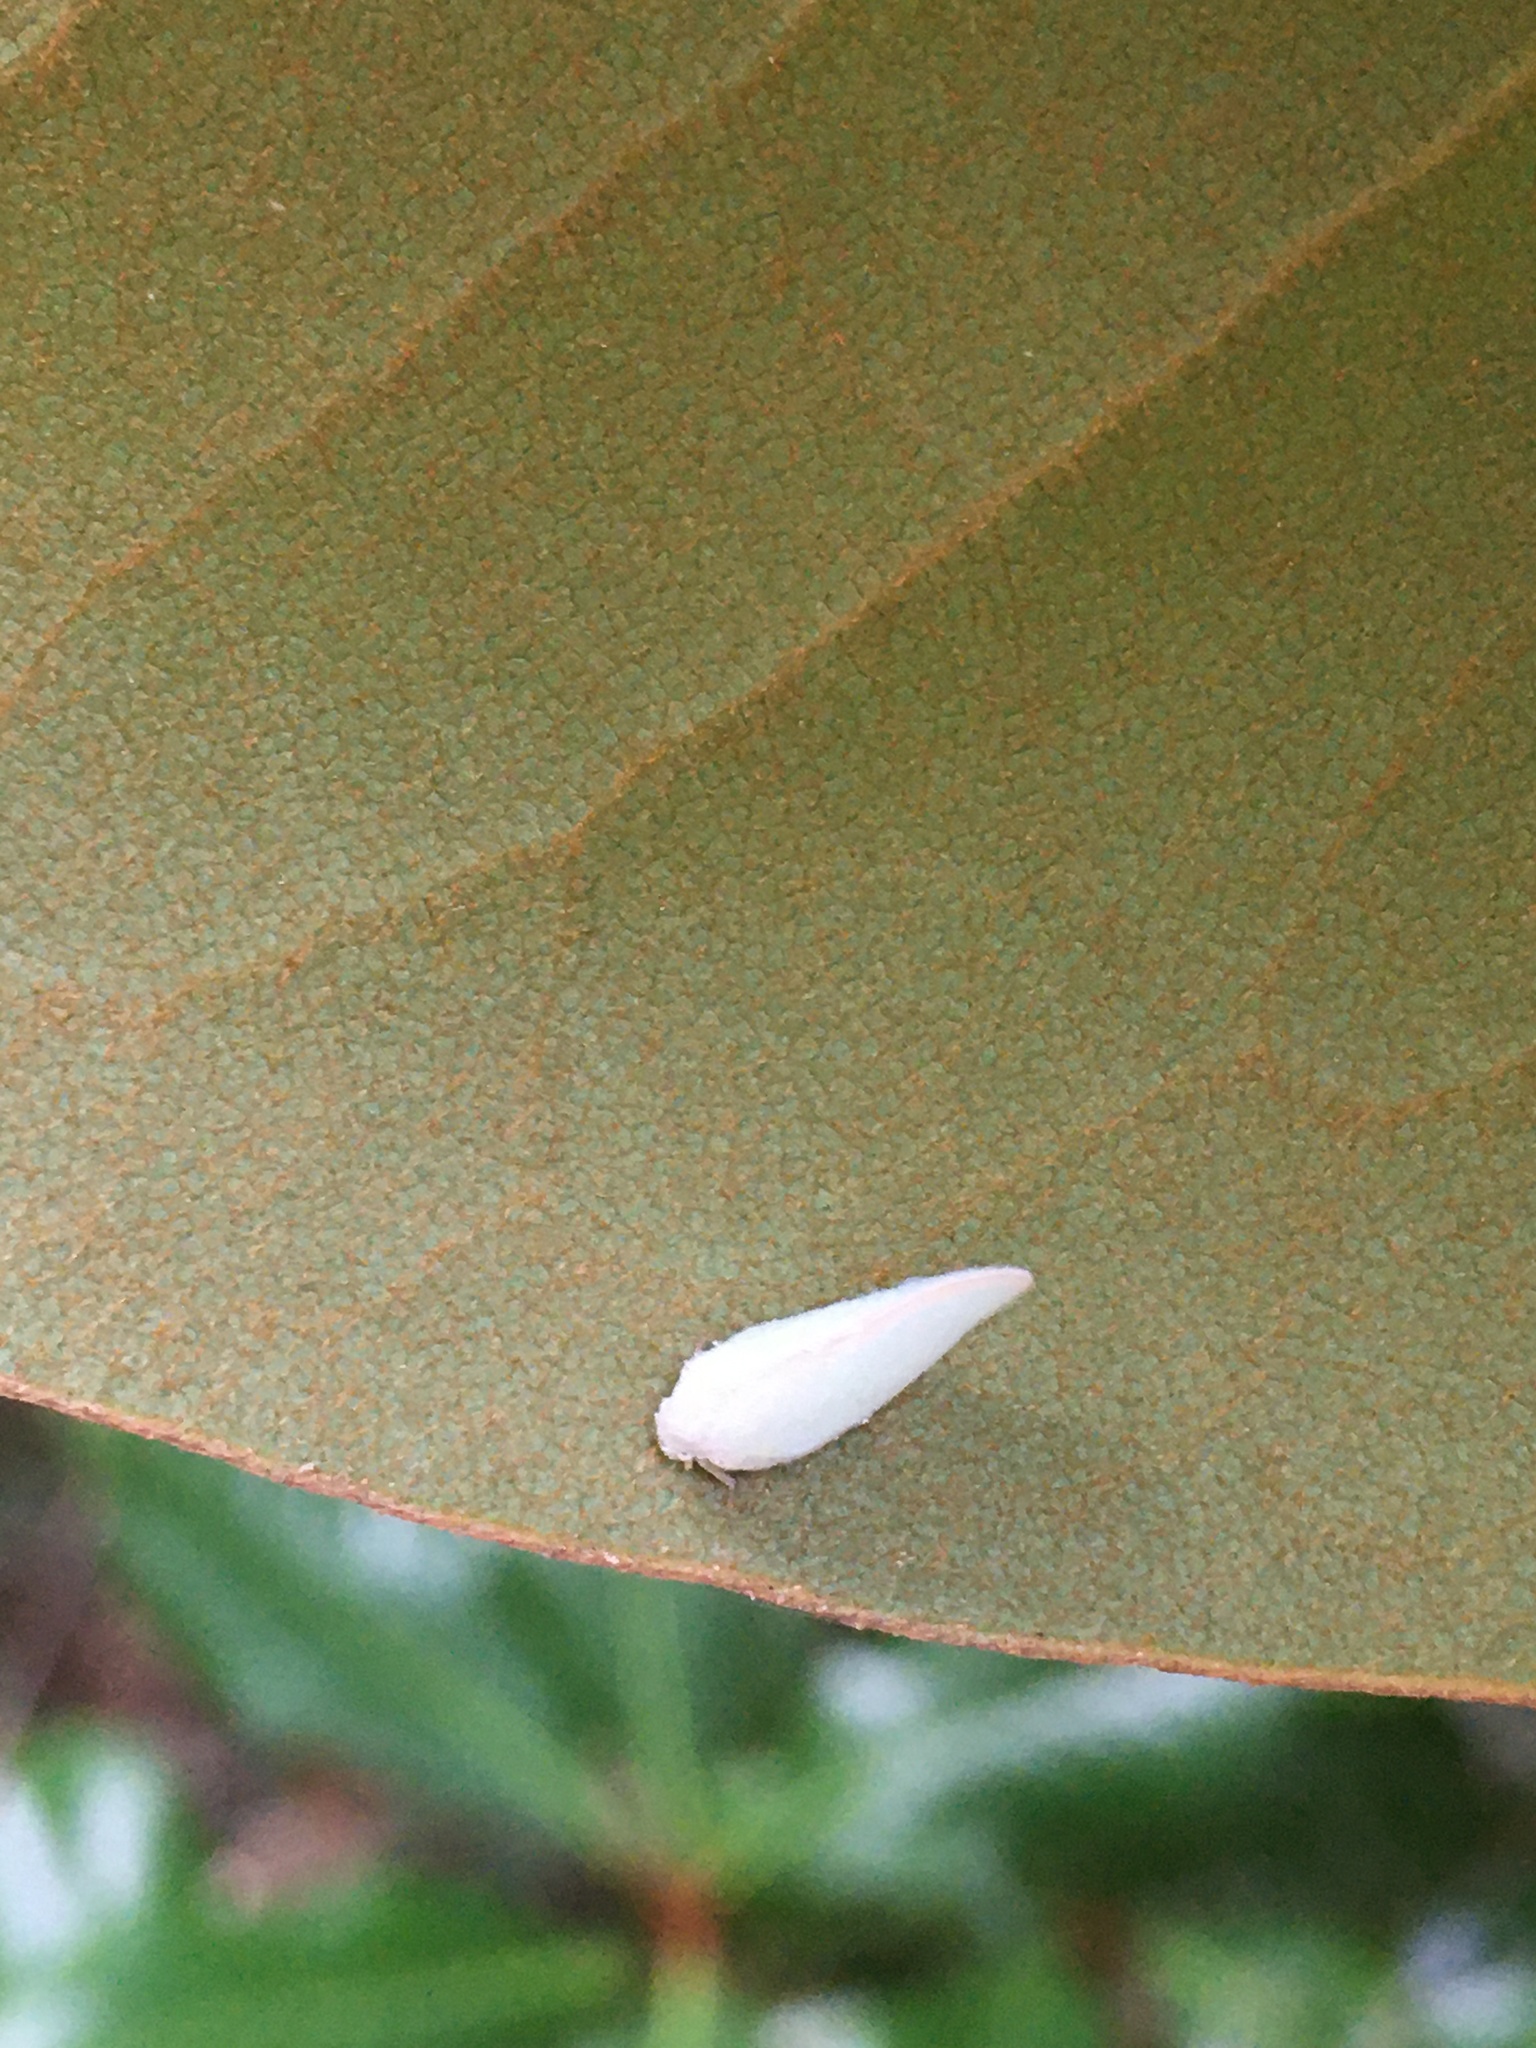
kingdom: Animalia
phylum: Arthropoda
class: Insecta
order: Hemiptera
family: Flatidae
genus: Ormenoides
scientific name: Ormenoides venusta
